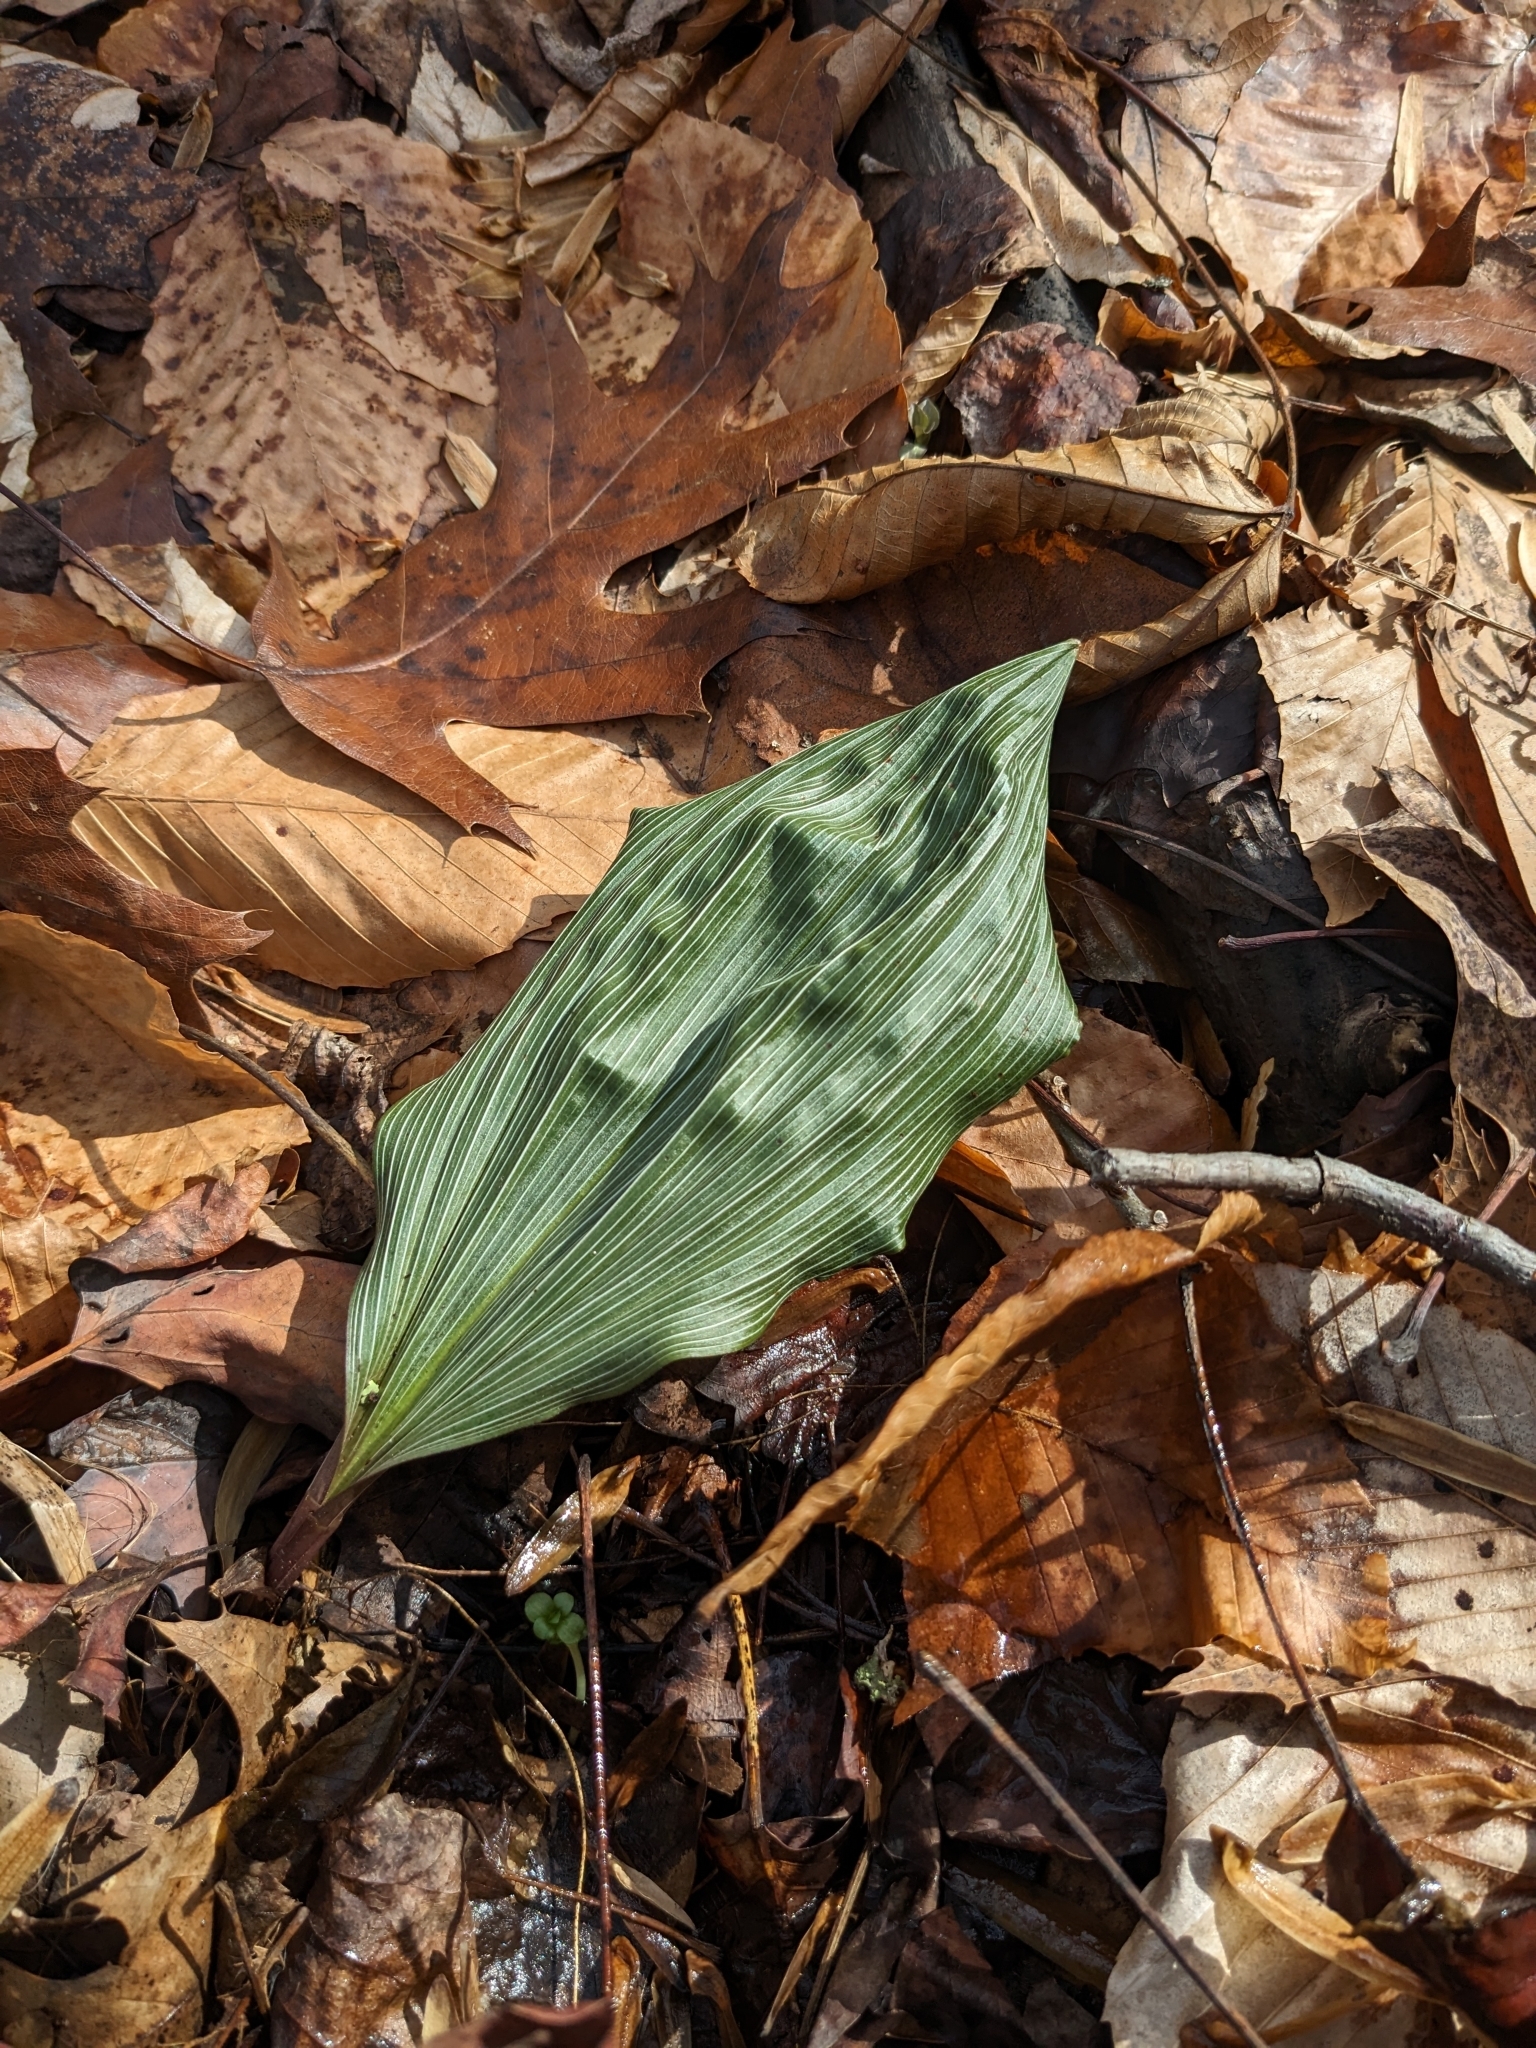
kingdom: Plantae
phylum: Tracheophyta
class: Liliopsida
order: Asparagales
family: Orchidaceae
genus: Aplectrum
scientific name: Aplectrum hyemale
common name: Adam-and-eve
